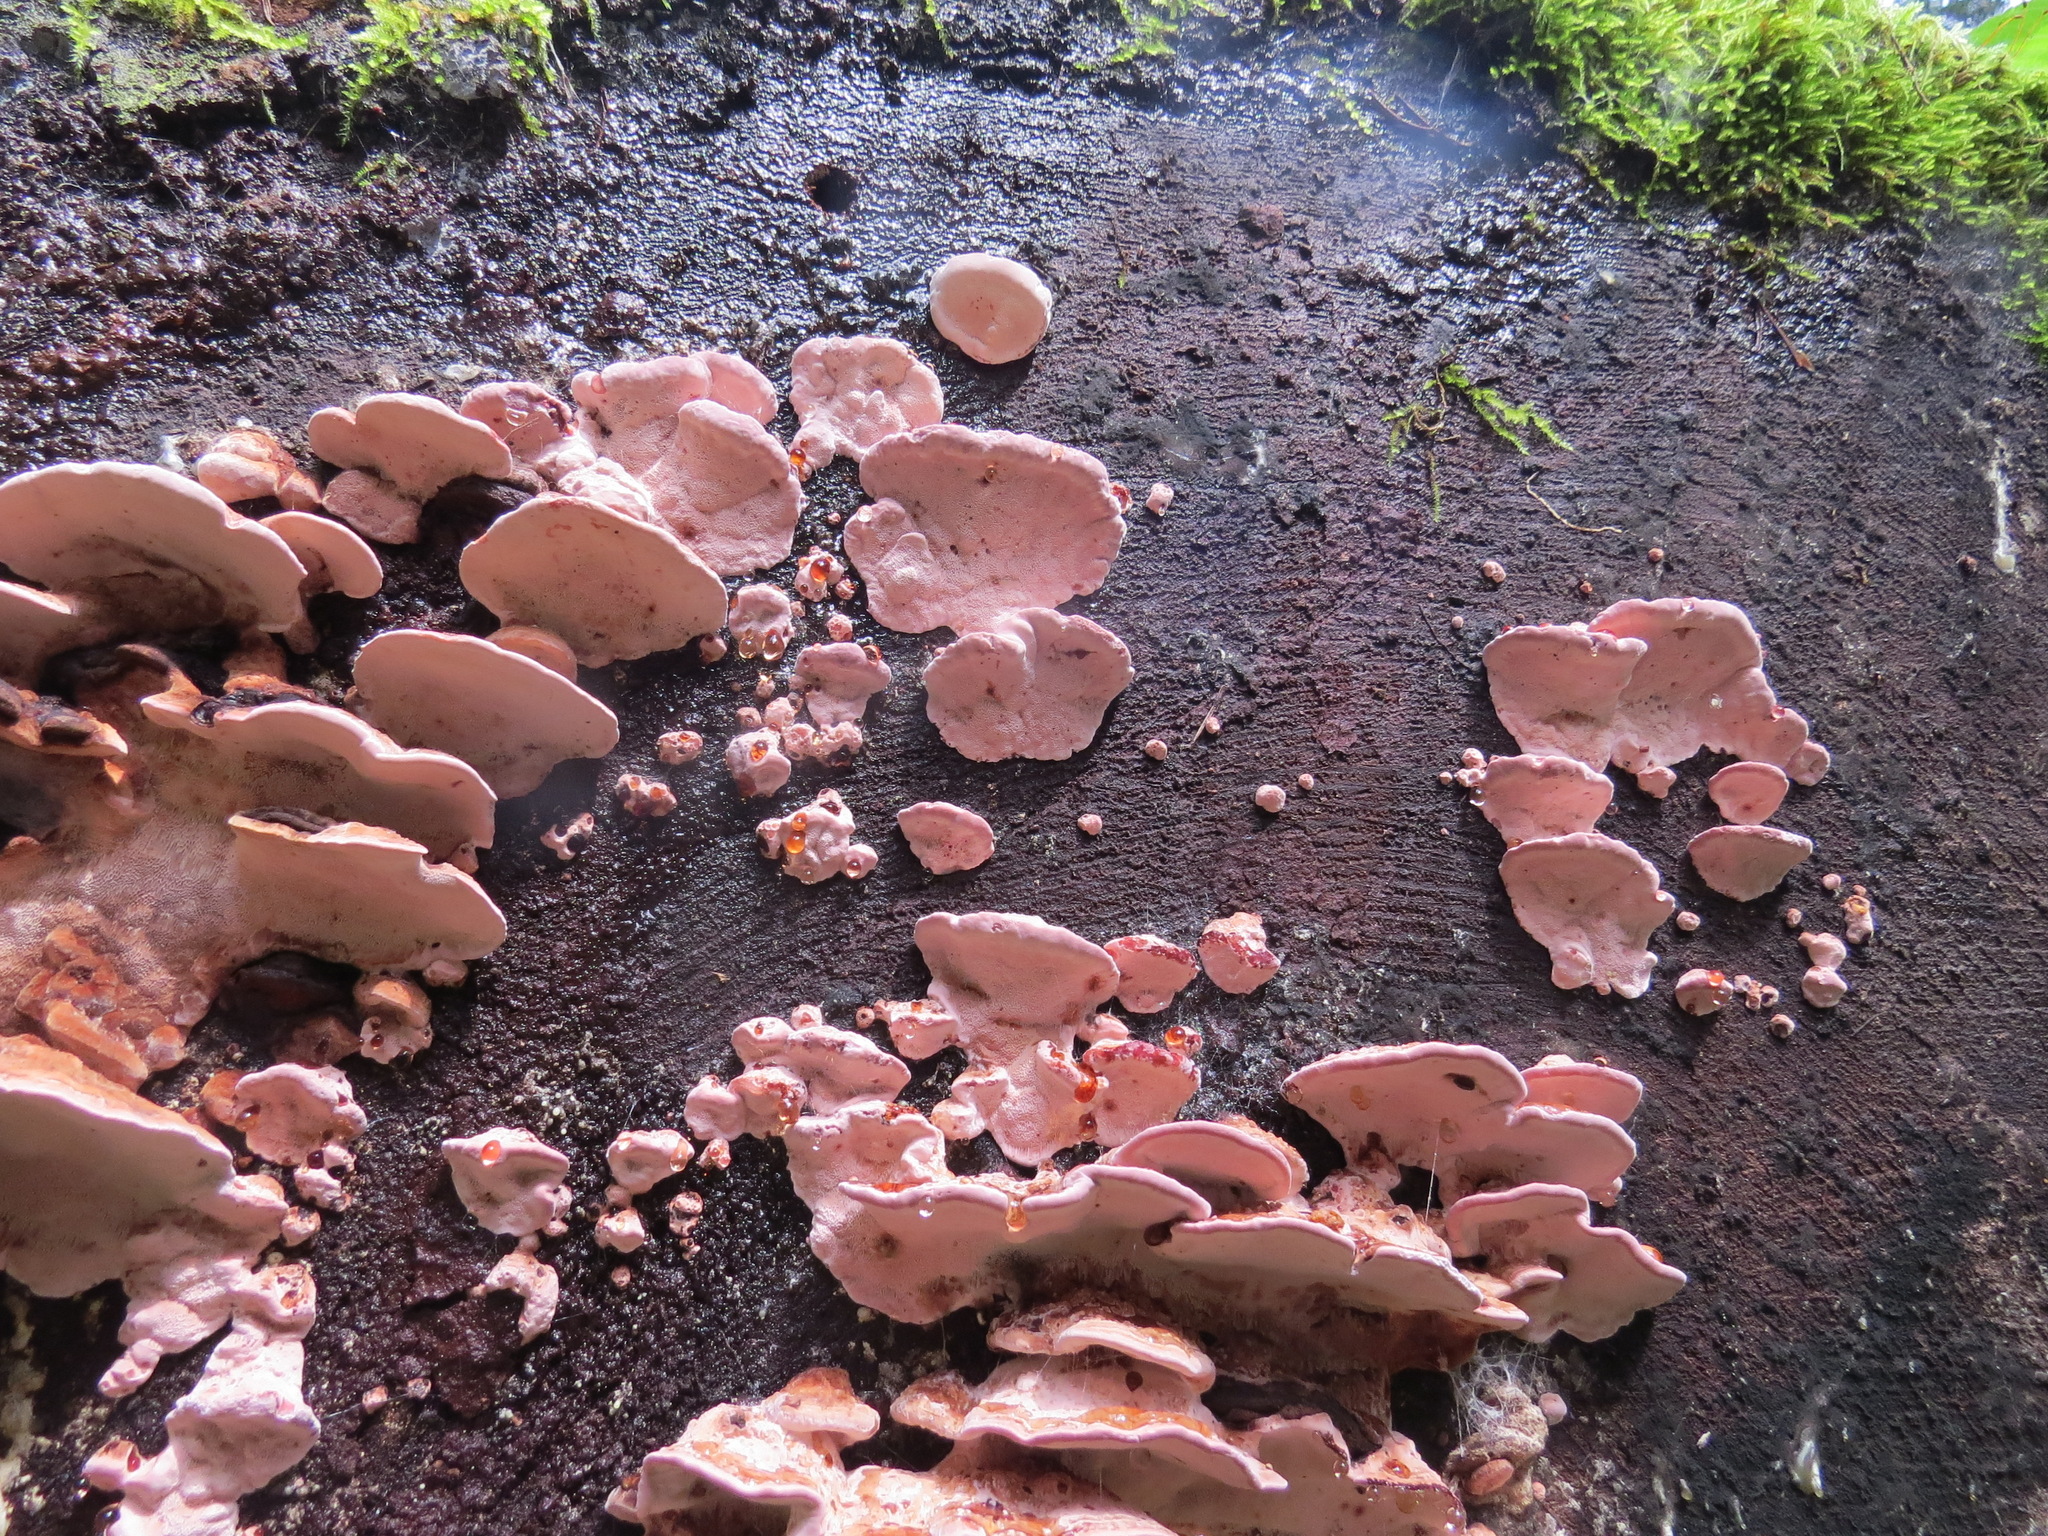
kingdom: Fungi
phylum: Basidiomycota
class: Agaricomycetes
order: Polyporales
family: Fomitopsidaceae
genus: Rhodofomes
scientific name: Rhodofomes cajanderi
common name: Rosy conk
